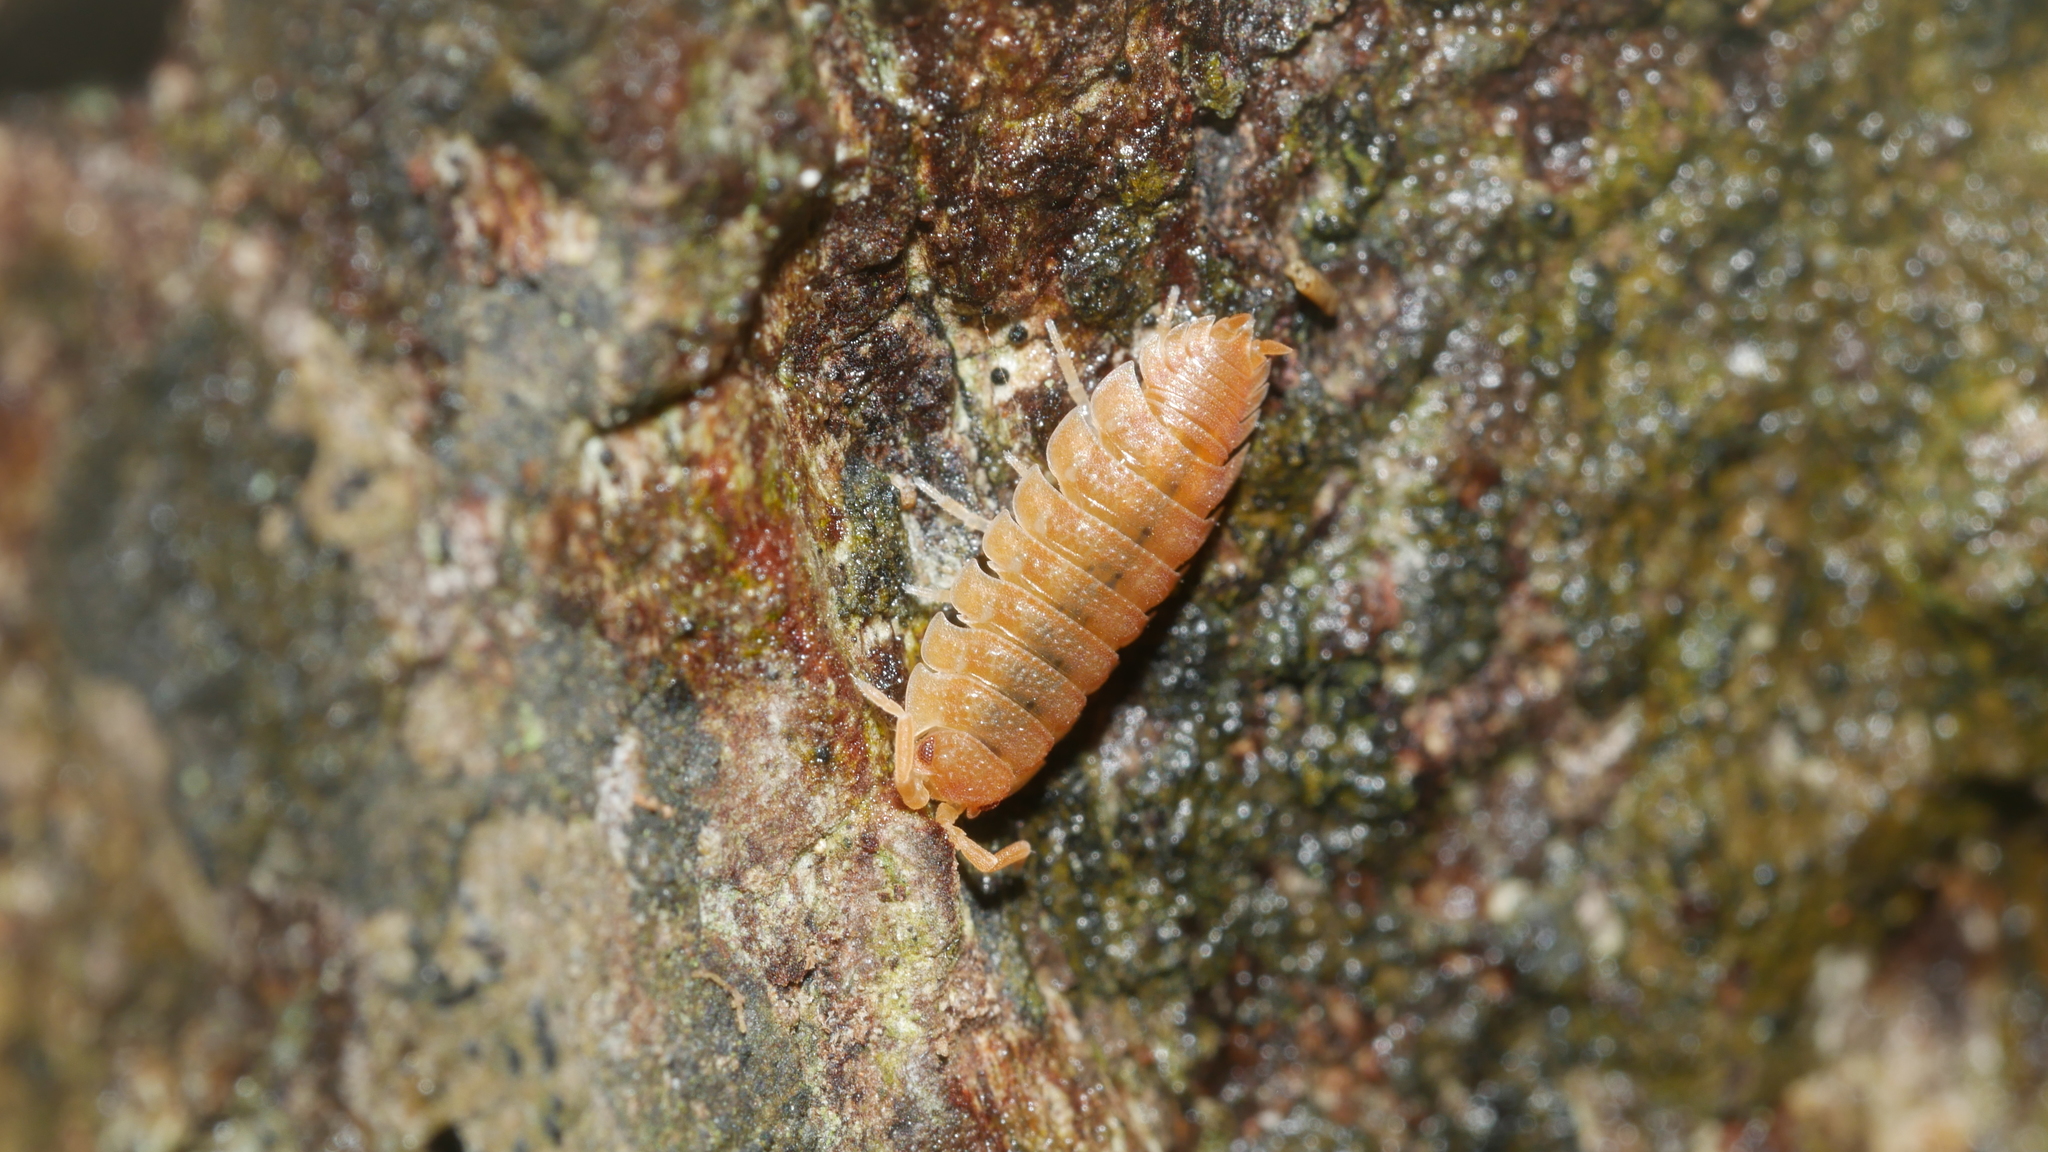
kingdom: Animalia
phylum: Arthropoda
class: Malacostraca
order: Isopoda
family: Porcellionidae
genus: Porcellio
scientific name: Porcellio scaber
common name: Common rough woodlouse
